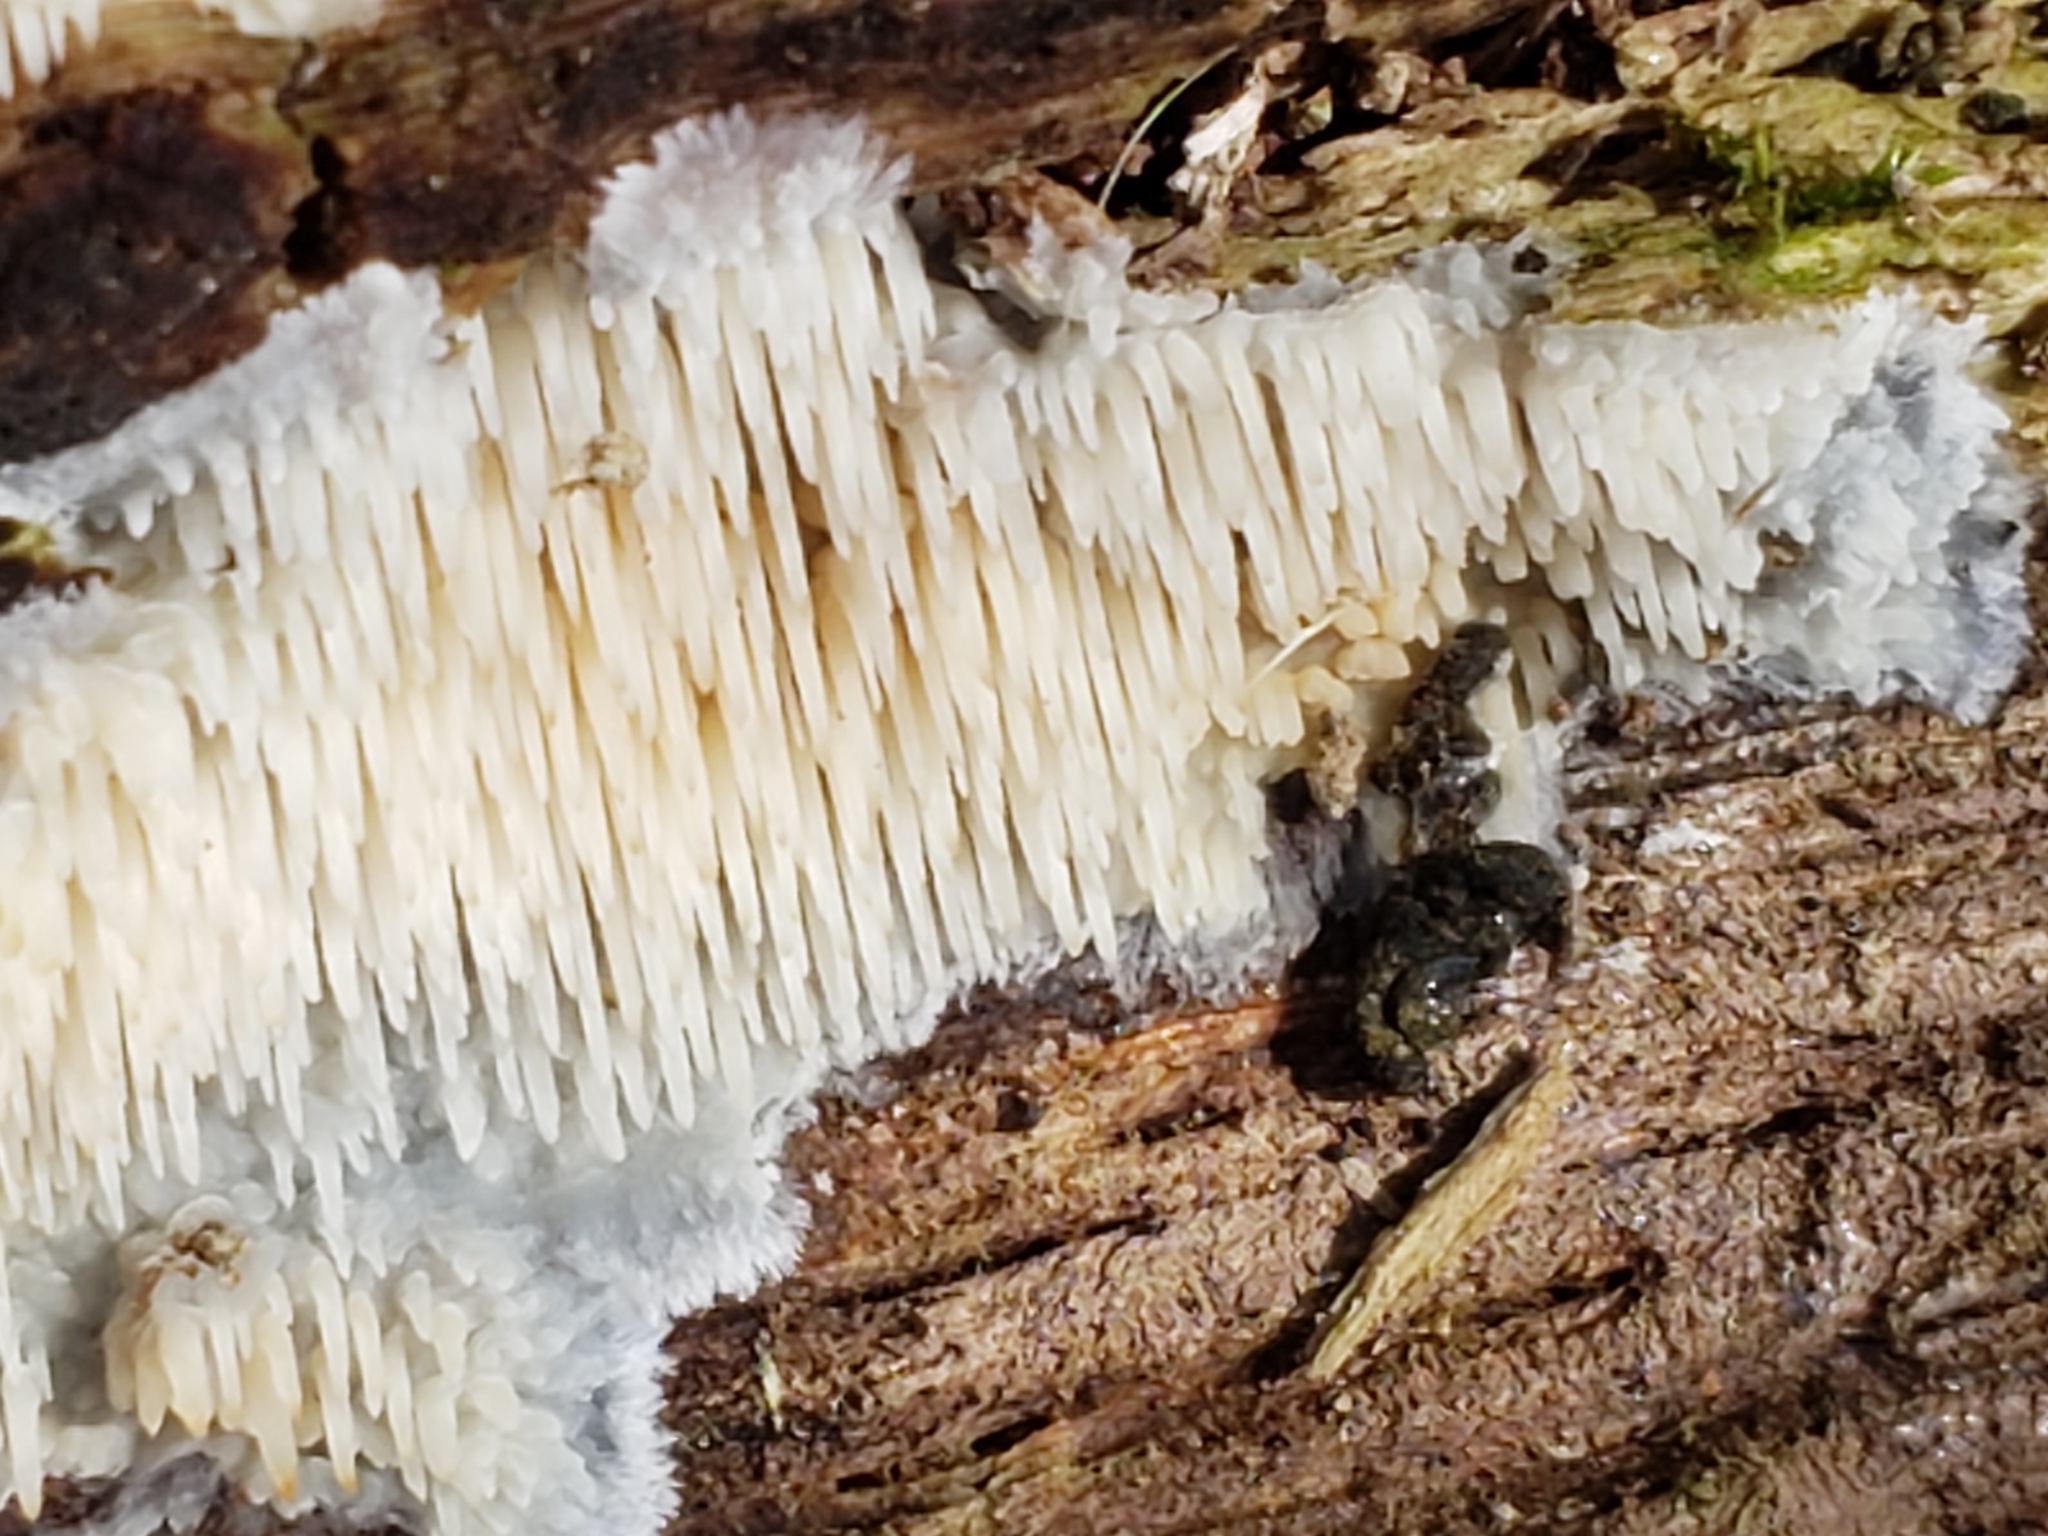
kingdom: Fungi
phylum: Basidiomycota
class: Agaricomycetes
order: Agaricales
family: Radulomycetaceae
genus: Radulomyces
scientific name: Radulomyces copelandii
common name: Asian beauty
